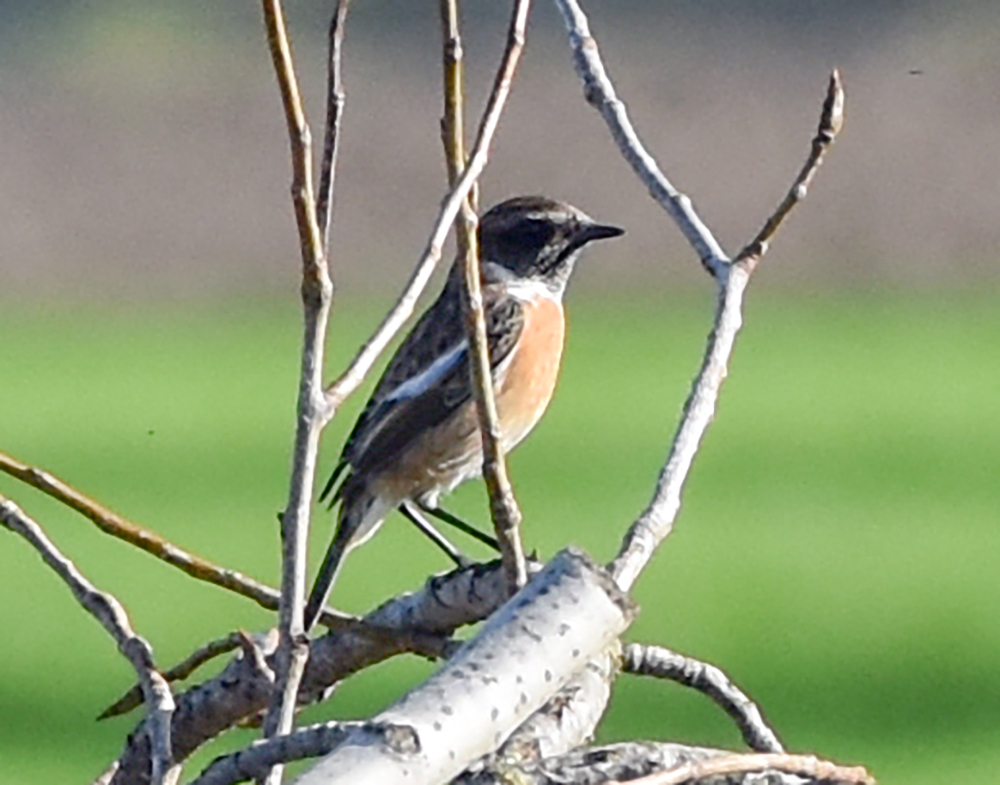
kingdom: Animalia
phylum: Chordata
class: Aves
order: Passeriformes
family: Muscicapidae
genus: Saxicola
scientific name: Saxicola rubicola
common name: European stonechat
